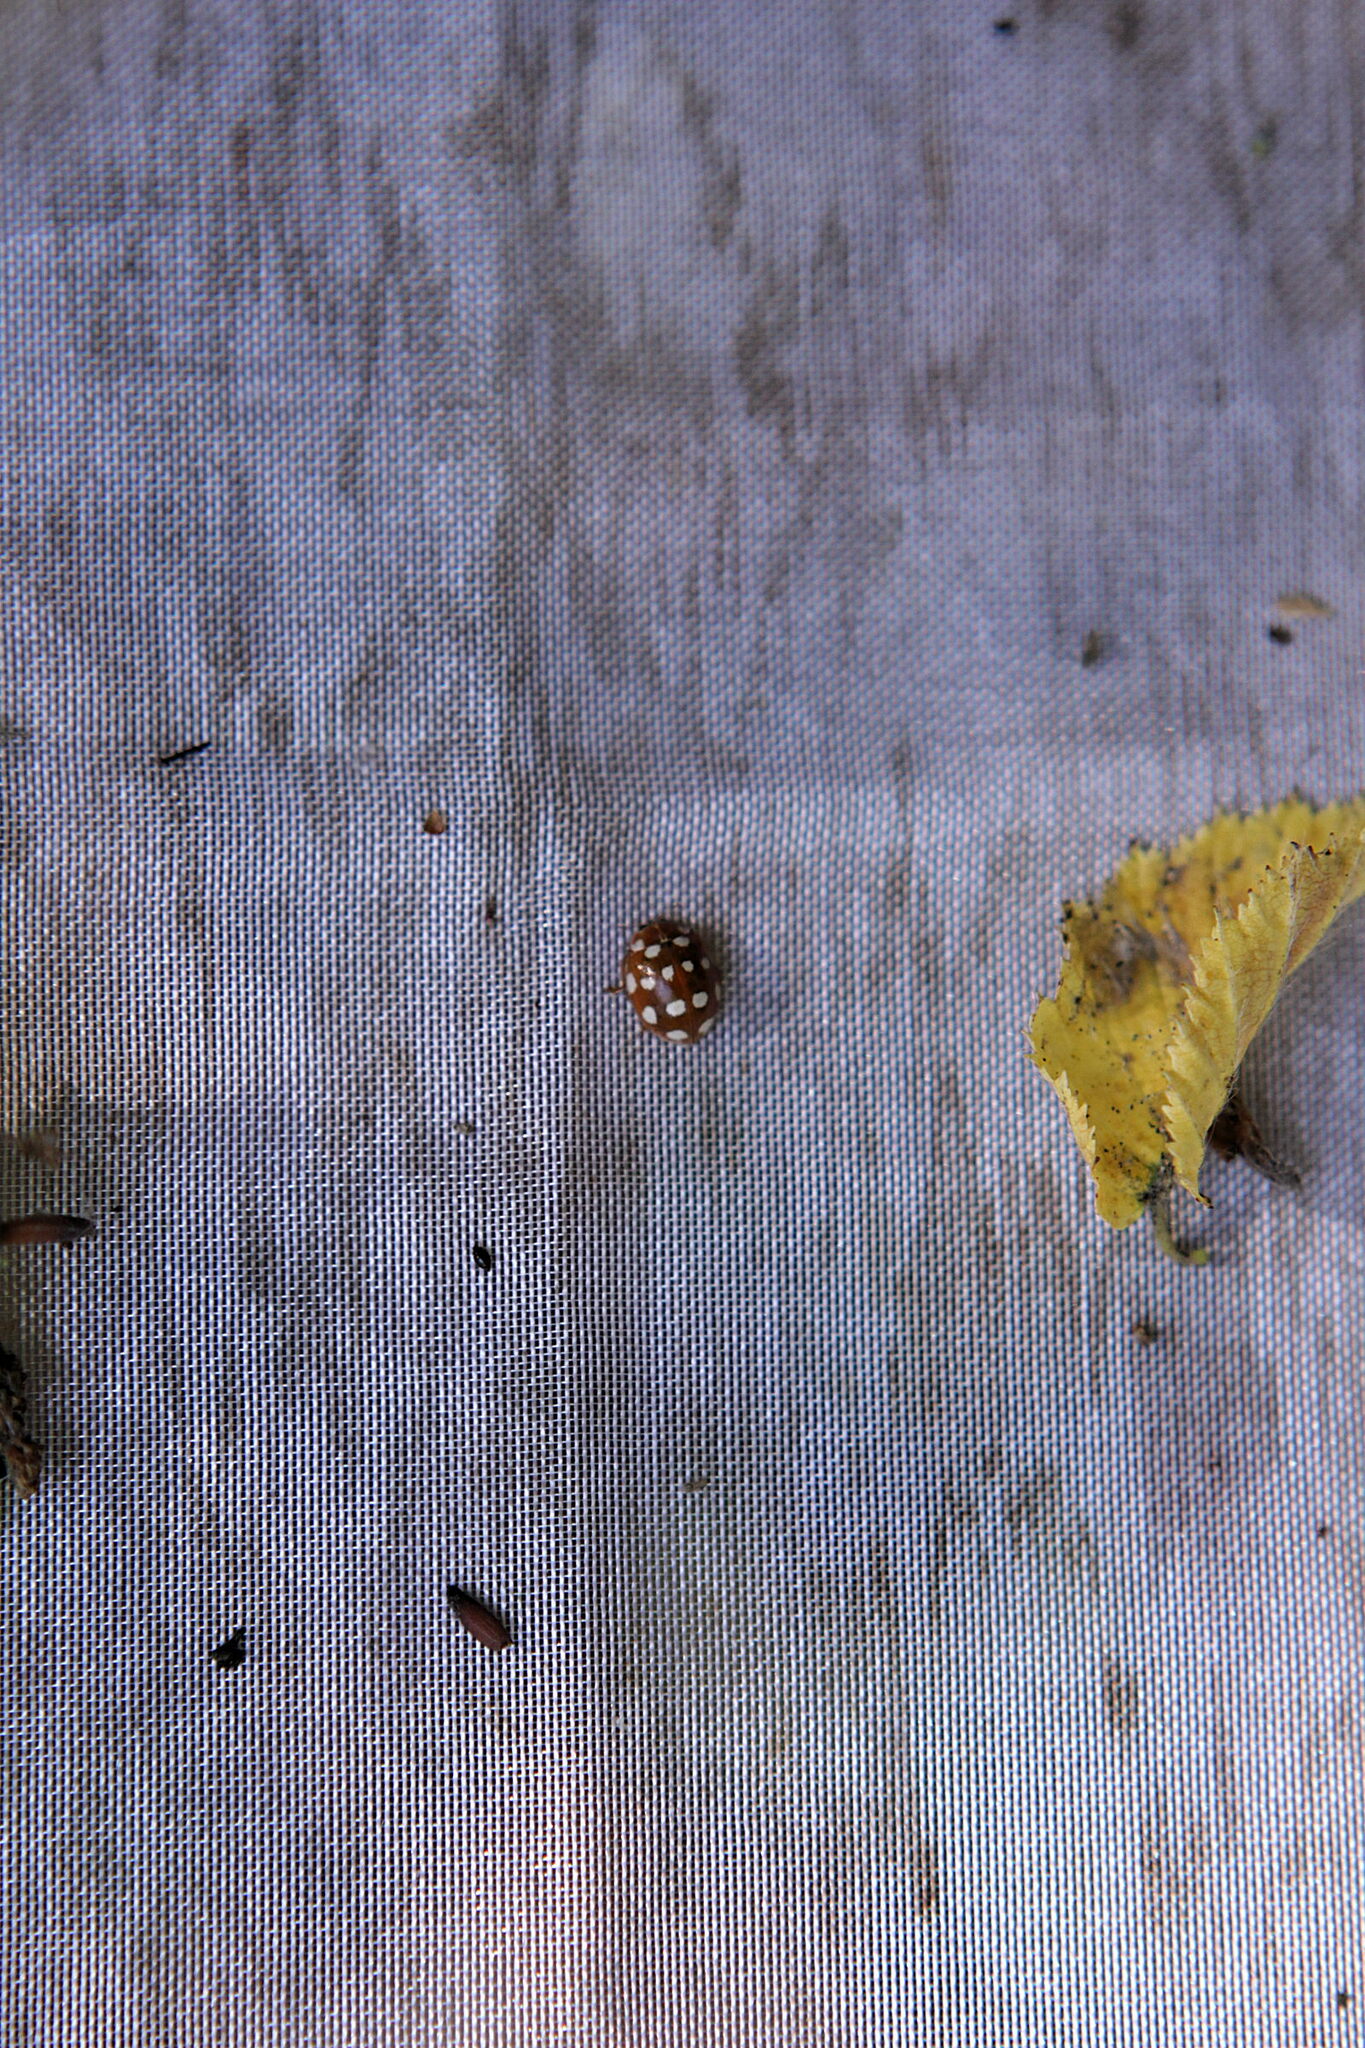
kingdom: Animalia
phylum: Arthropoda
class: Insecta
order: Coleoptera
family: Coccinellidae
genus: Calvia
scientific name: Calvia quatuordecimguttata
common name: Cream-spot ladybird
